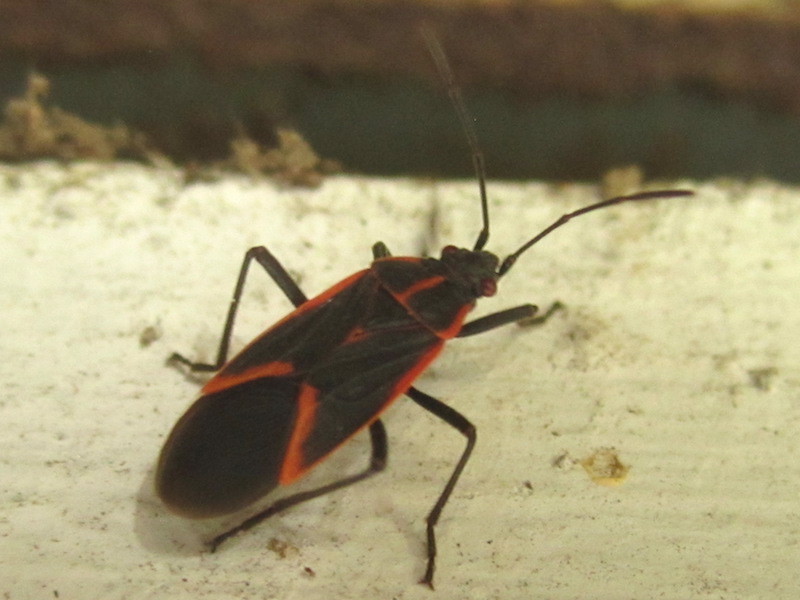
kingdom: Animalia
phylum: Arthropoda
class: Insecta
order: Hemiptera
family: Rhopalidae
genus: Boisea
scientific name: Boisea trivittata
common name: Boxelder bug
